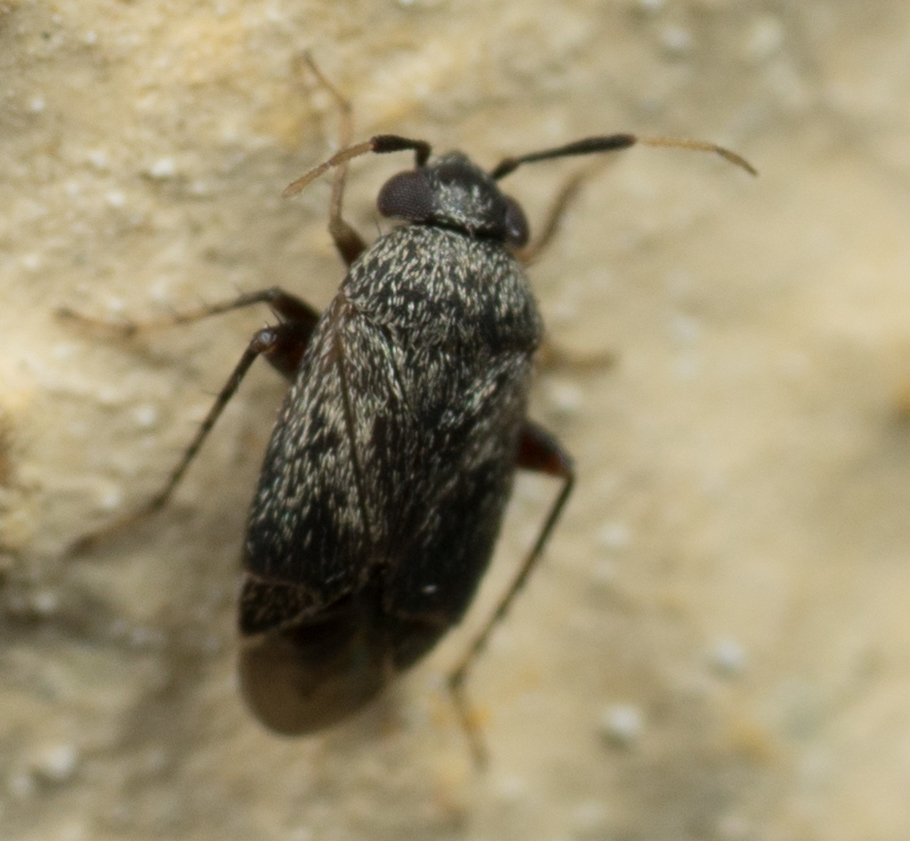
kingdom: Animalia
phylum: Arthropoda
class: Insecta
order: Hemiptera
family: Miridae
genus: Rhinacloa
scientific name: Rhinacloa forticornis
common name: Brown cotton mirid
